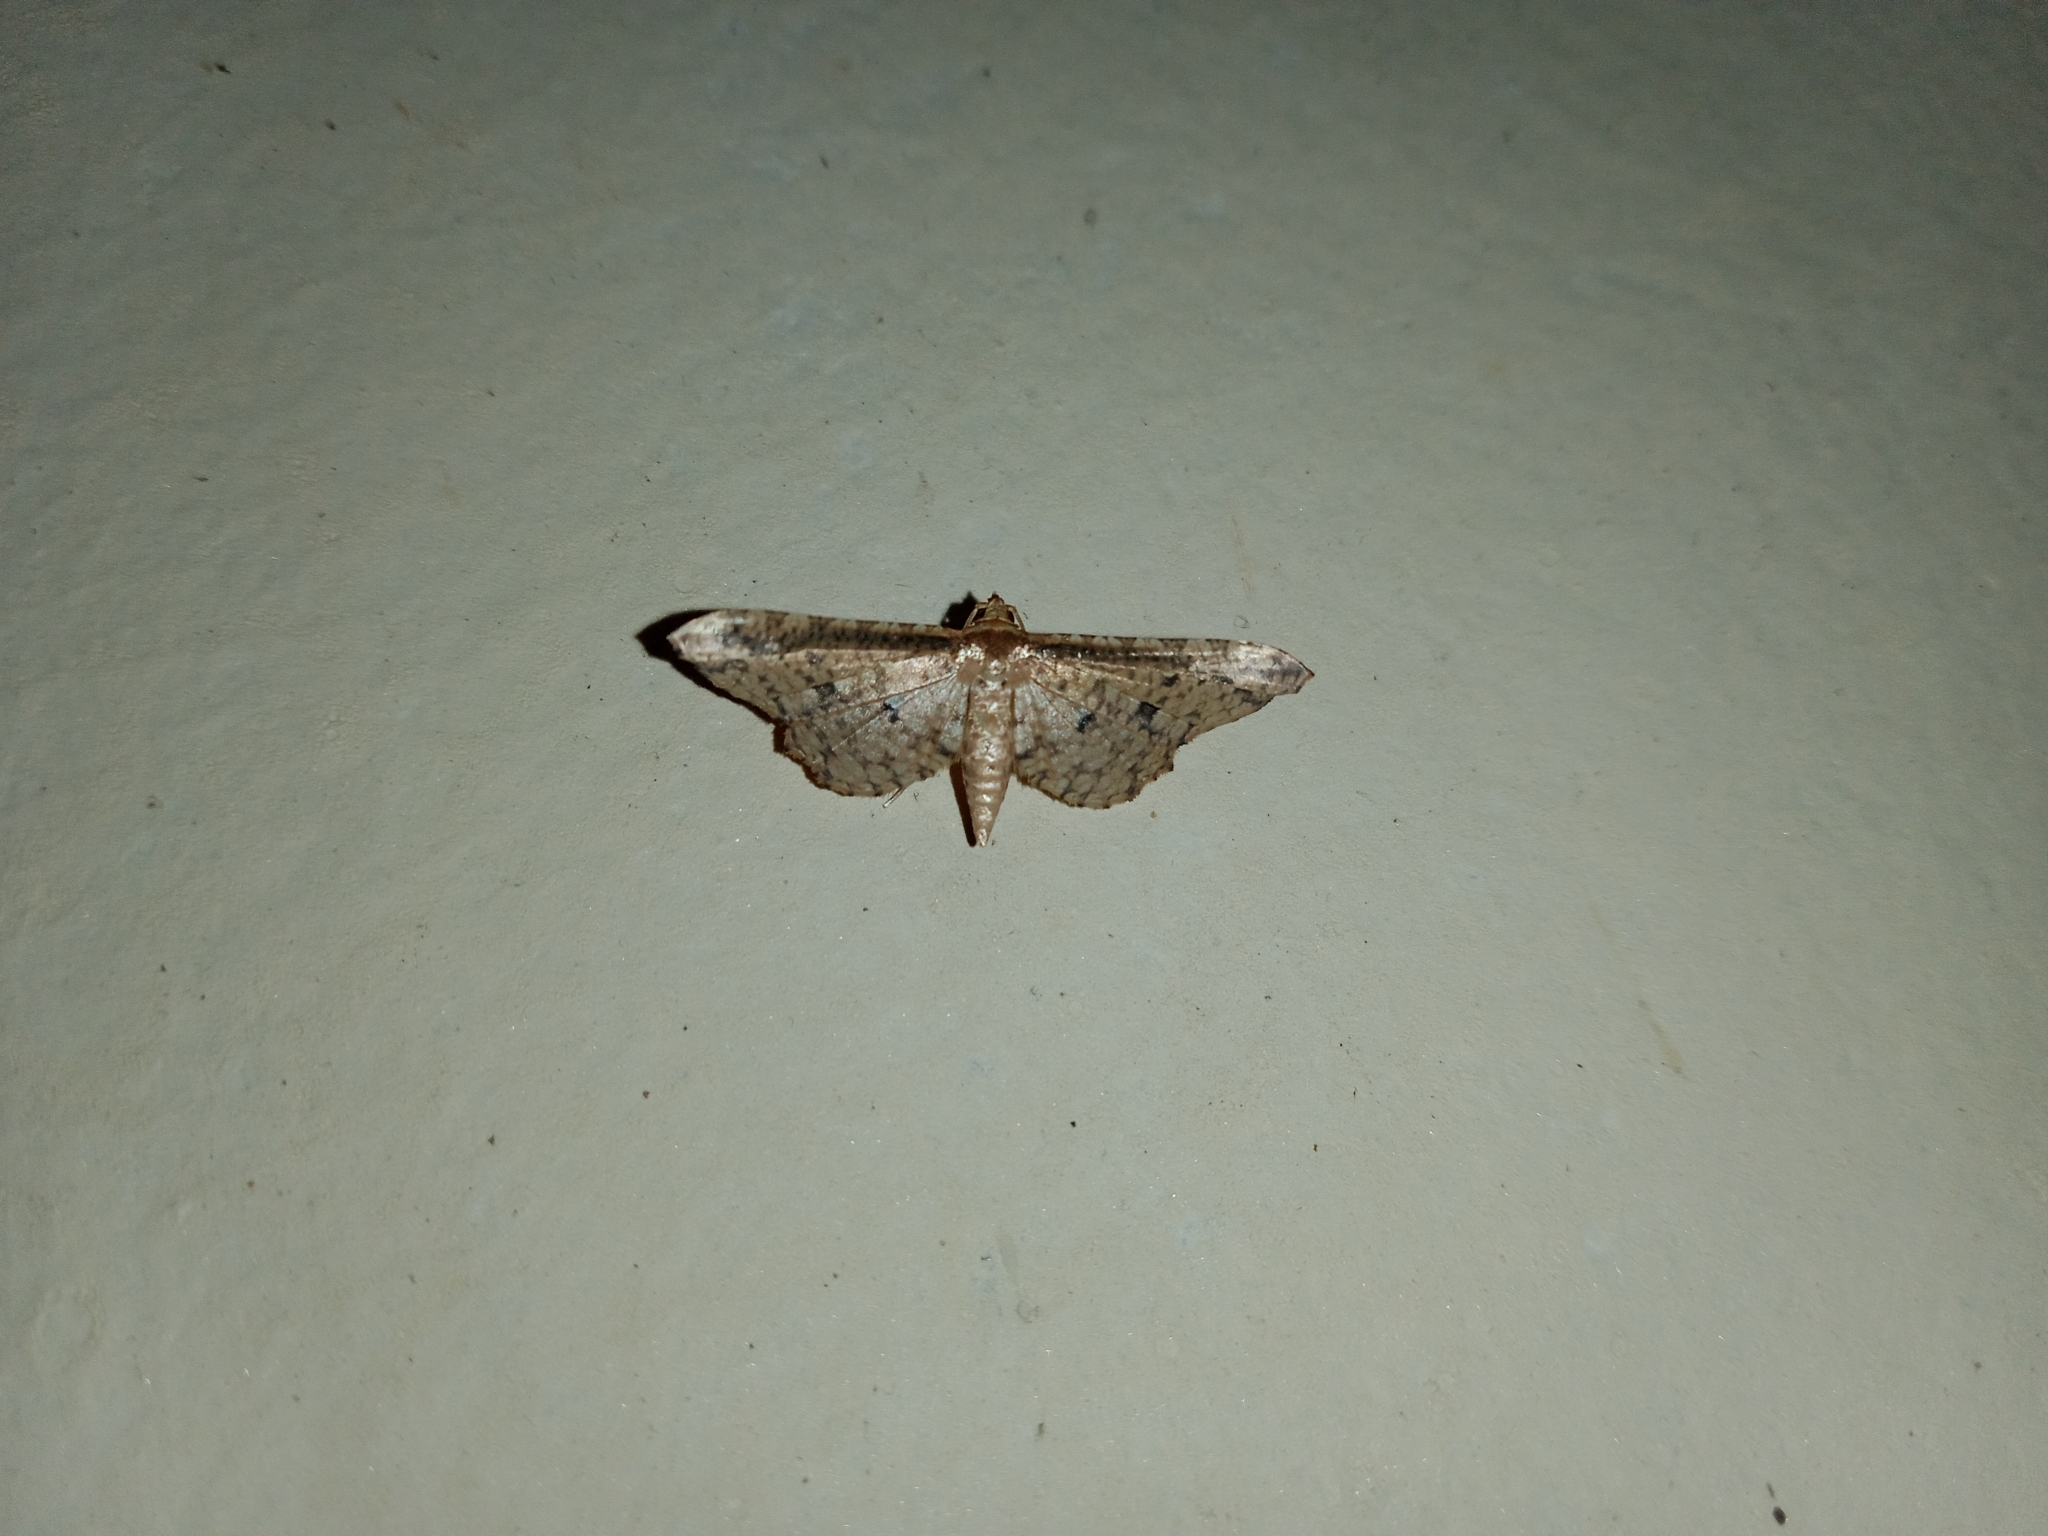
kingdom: Animalia
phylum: Arthropoda
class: Insecta
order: Lepidoptera
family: Thyrididae
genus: Pharambara
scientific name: Pharambara splendida
